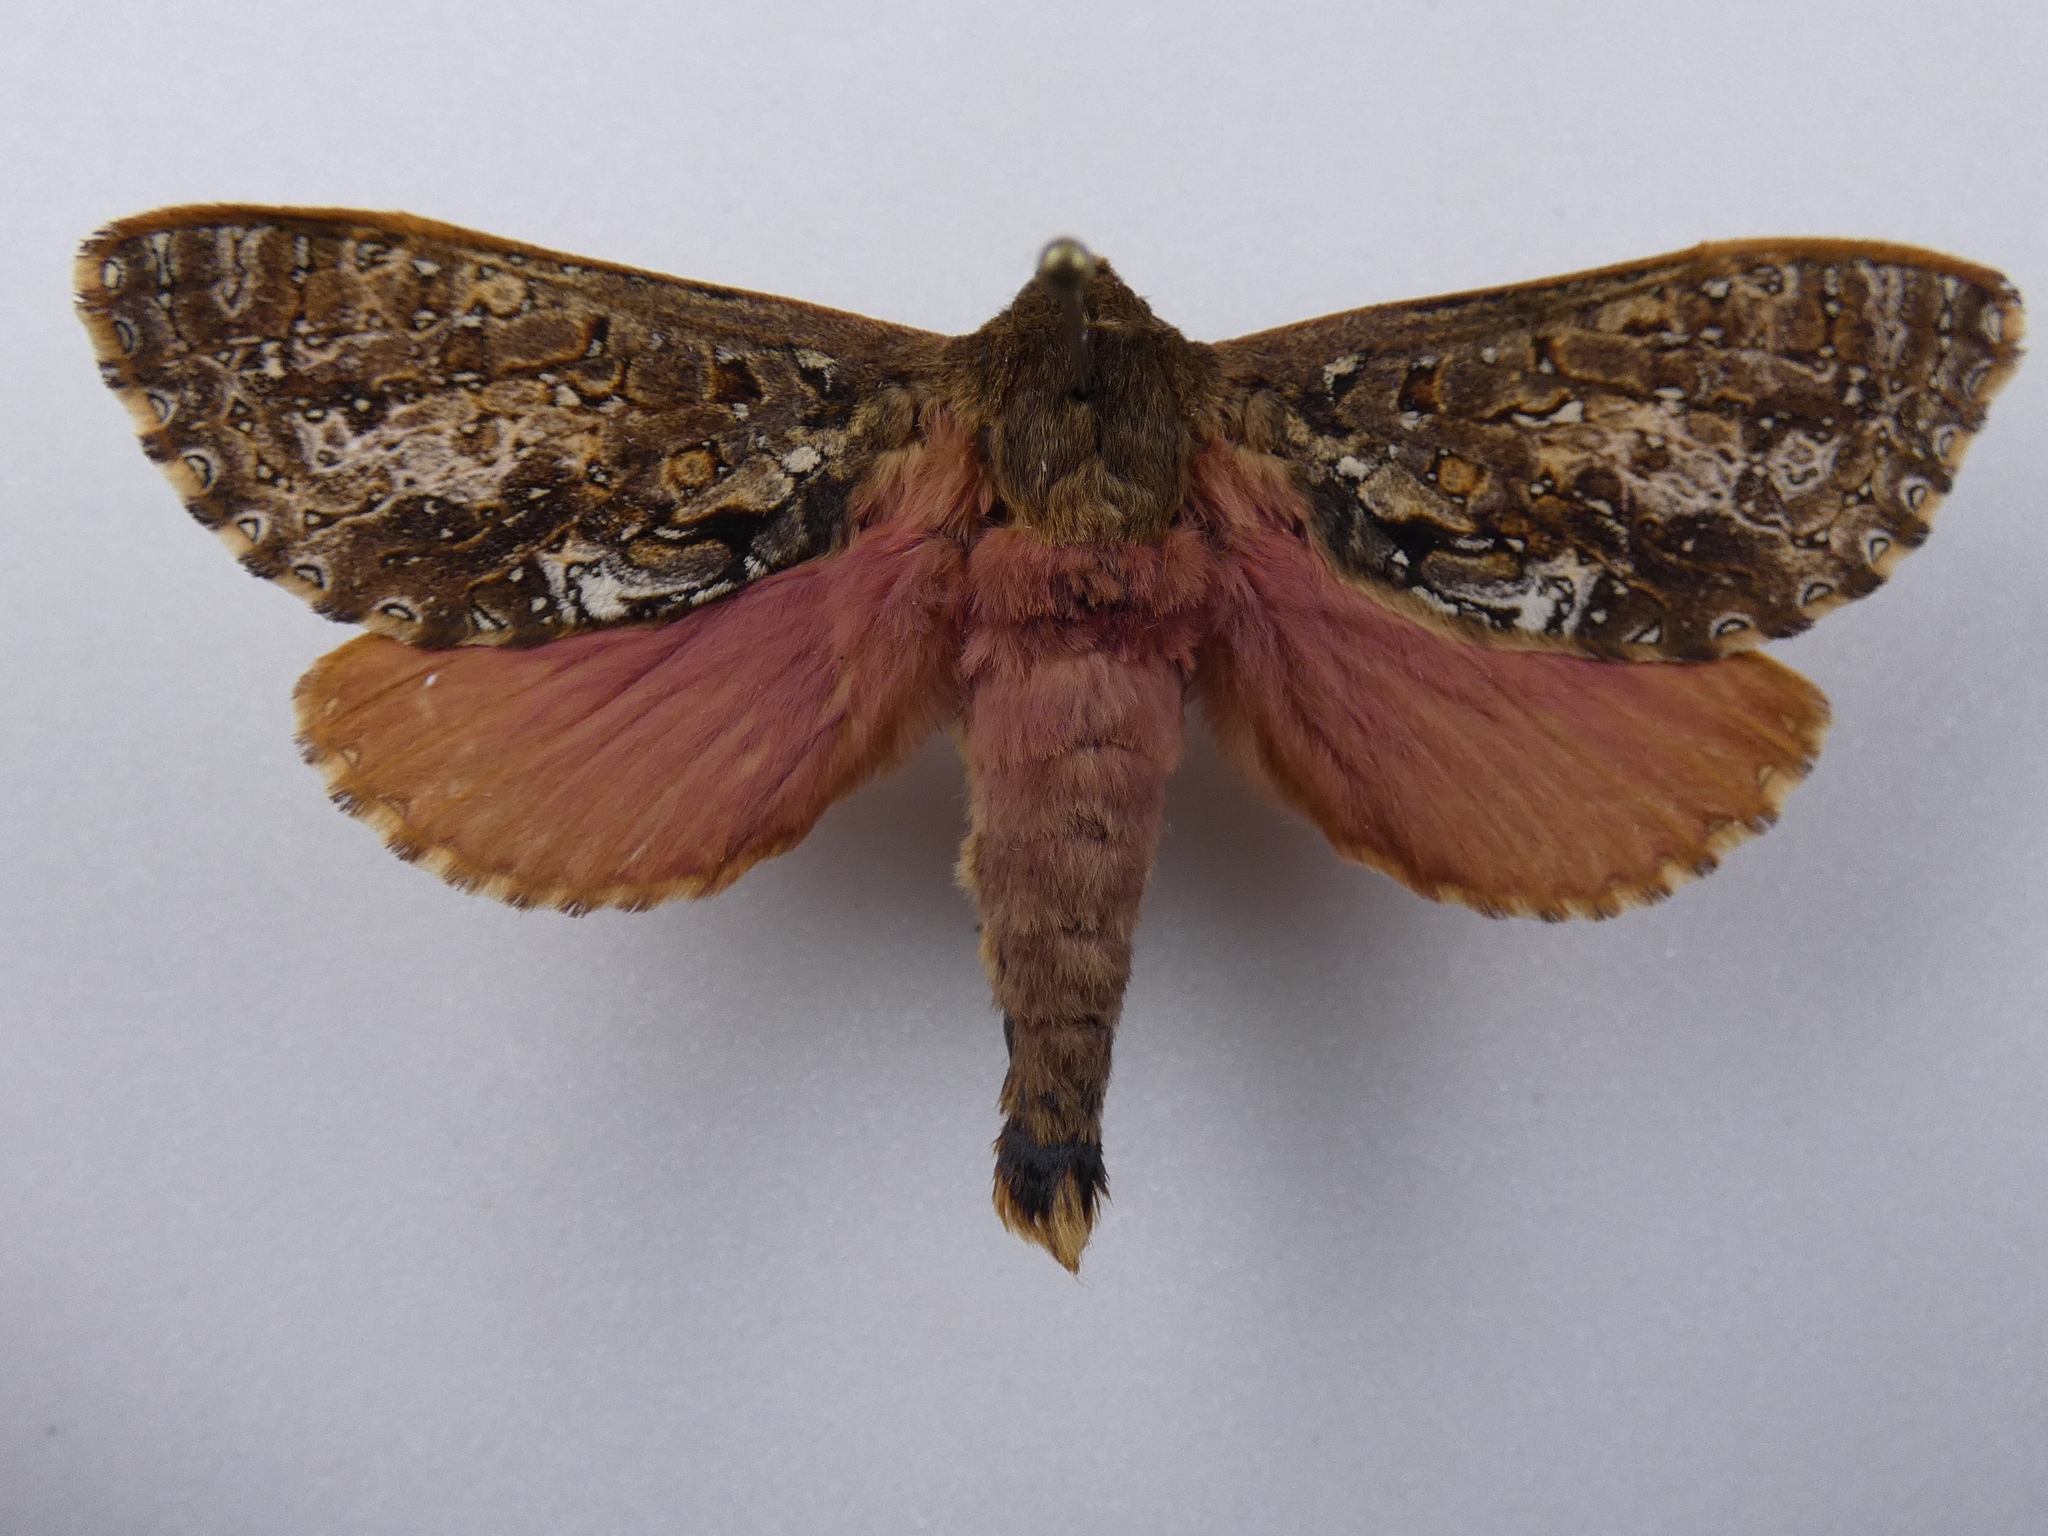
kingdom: Animalia
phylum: Arthropoda
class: Insecta
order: Lepidoptera
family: Hepialidae
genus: Dumbletonius
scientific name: Dumbletonius unimaculata
